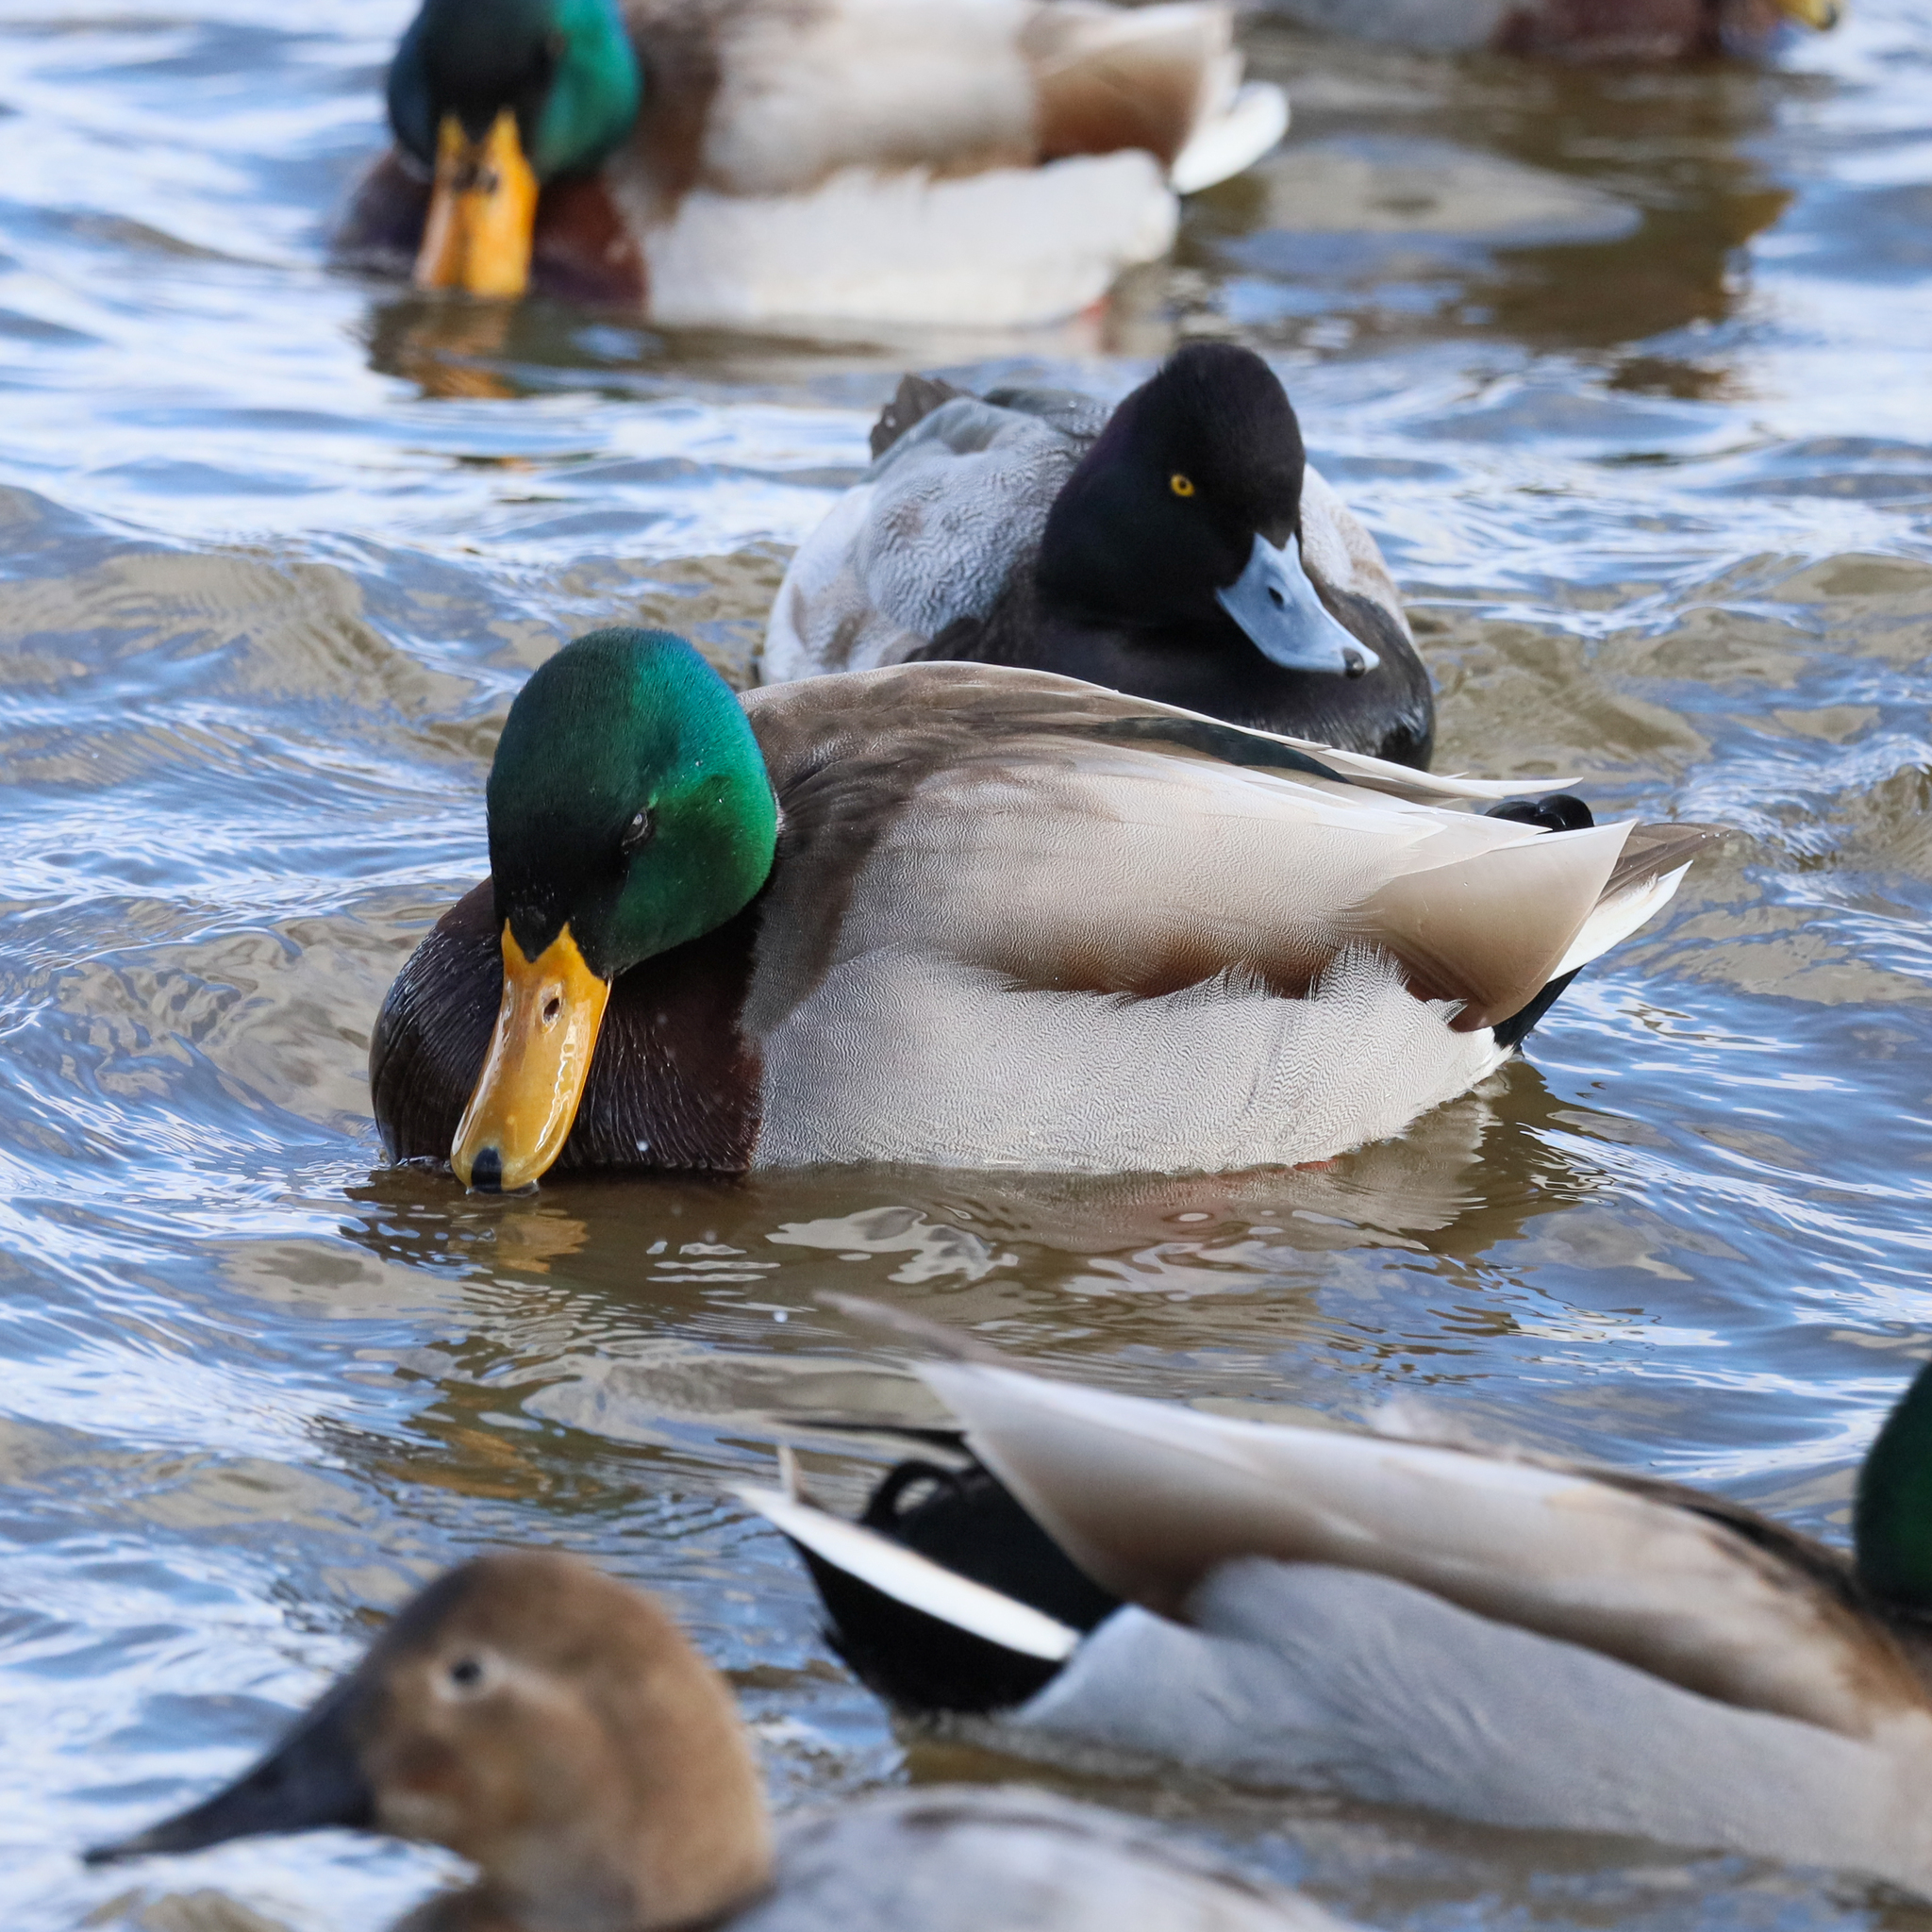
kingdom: Animalia
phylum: Chordata
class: Aves
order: Anseriformes
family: Anatidae
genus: Anas
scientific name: Anas platyrhynchos
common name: Mallard
